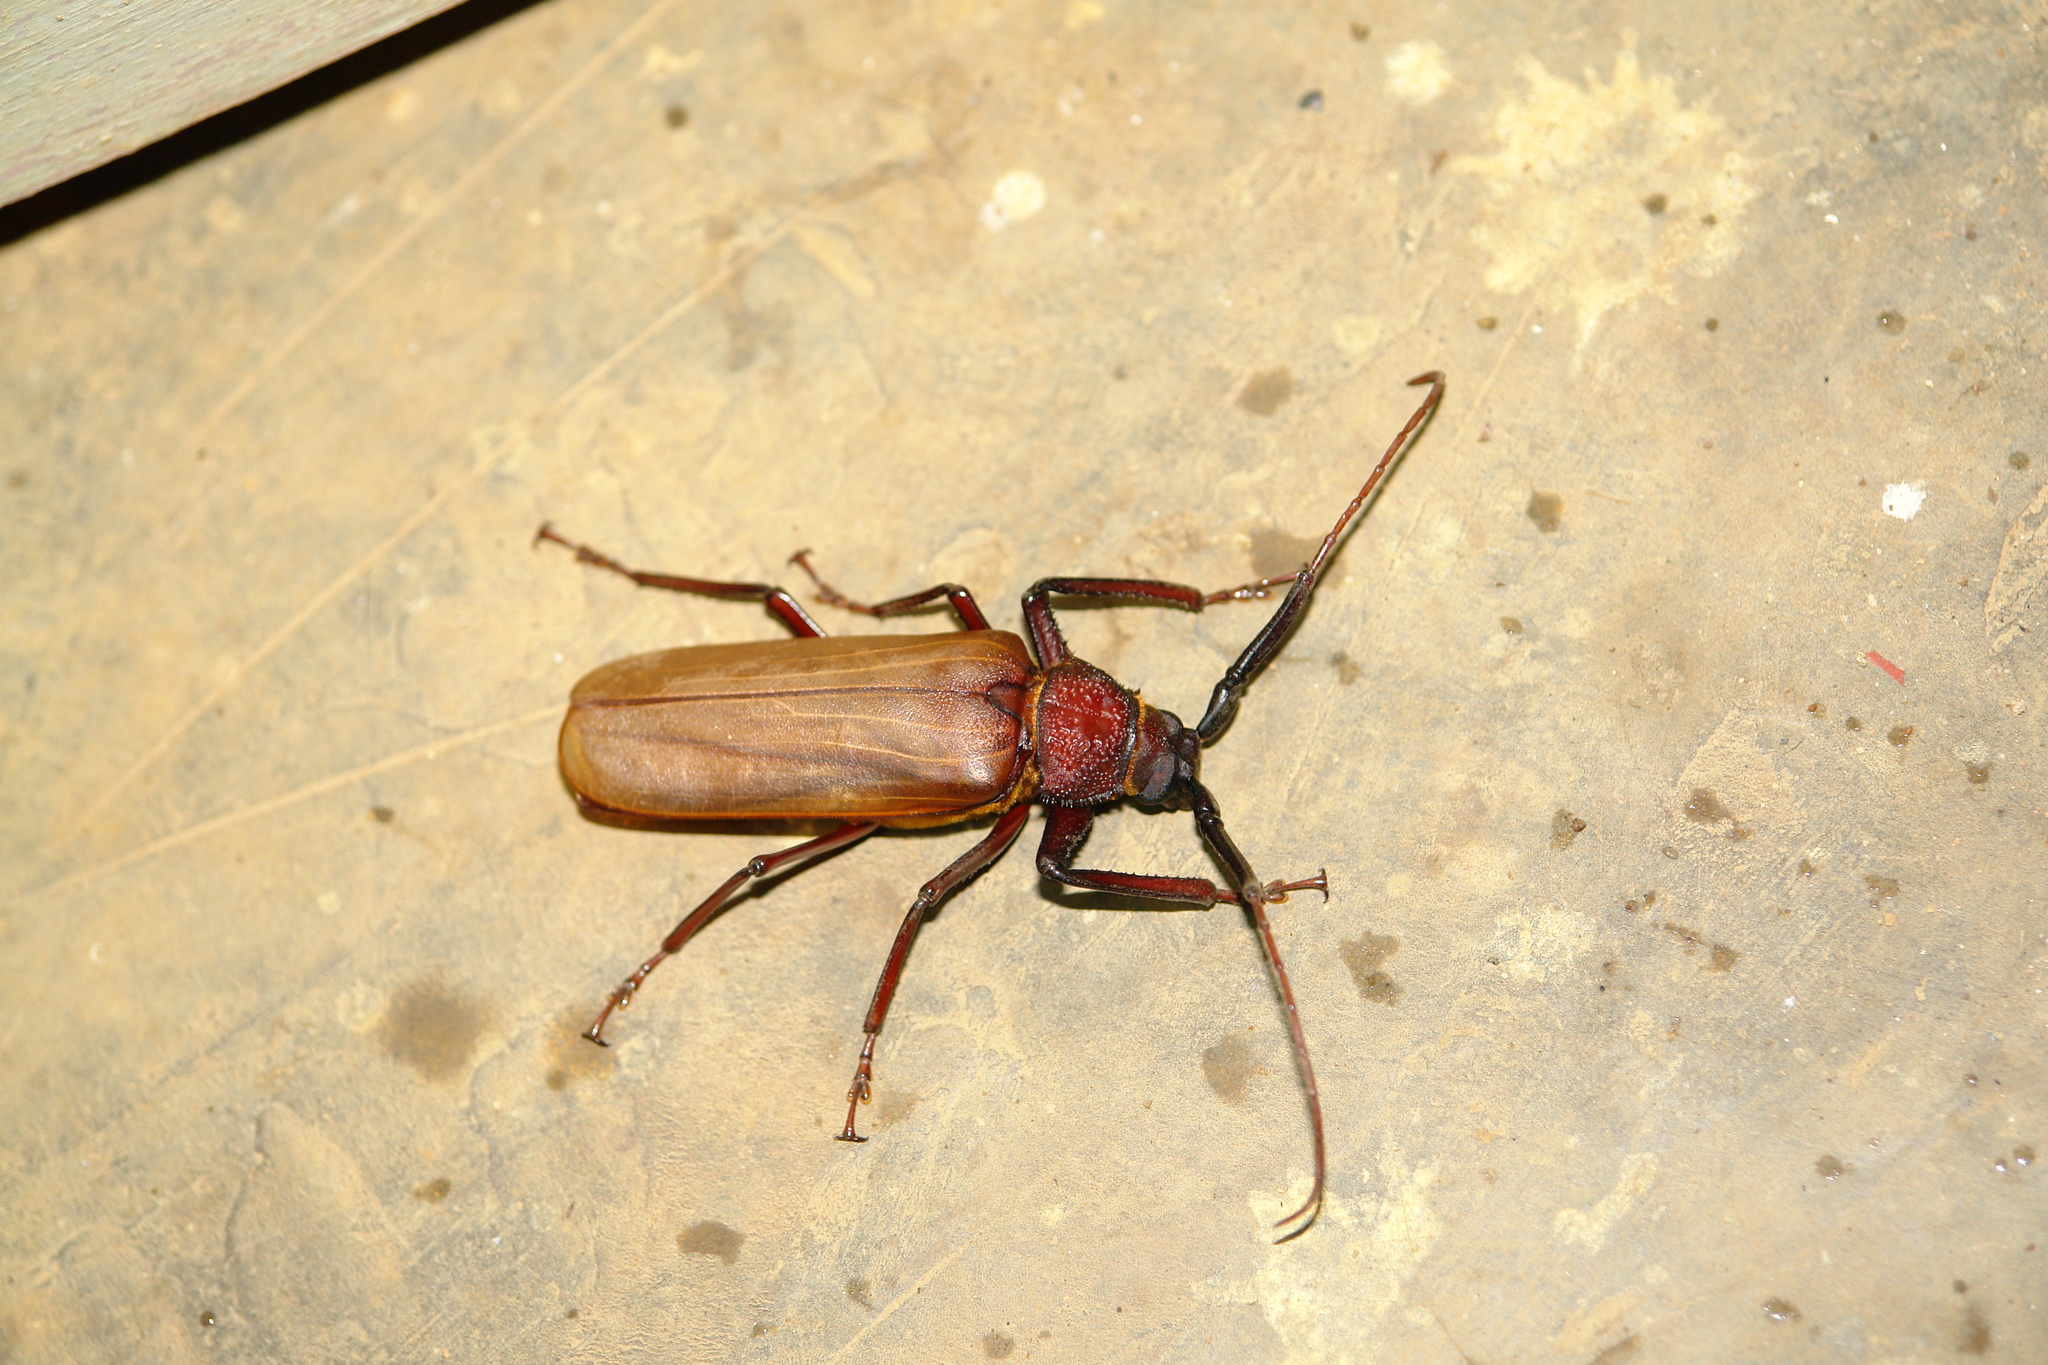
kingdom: Animalia
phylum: Arthropoda
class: Insecta
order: Coleoptera
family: Cerambycidae
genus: Bandar
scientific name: Bandar pascoei
